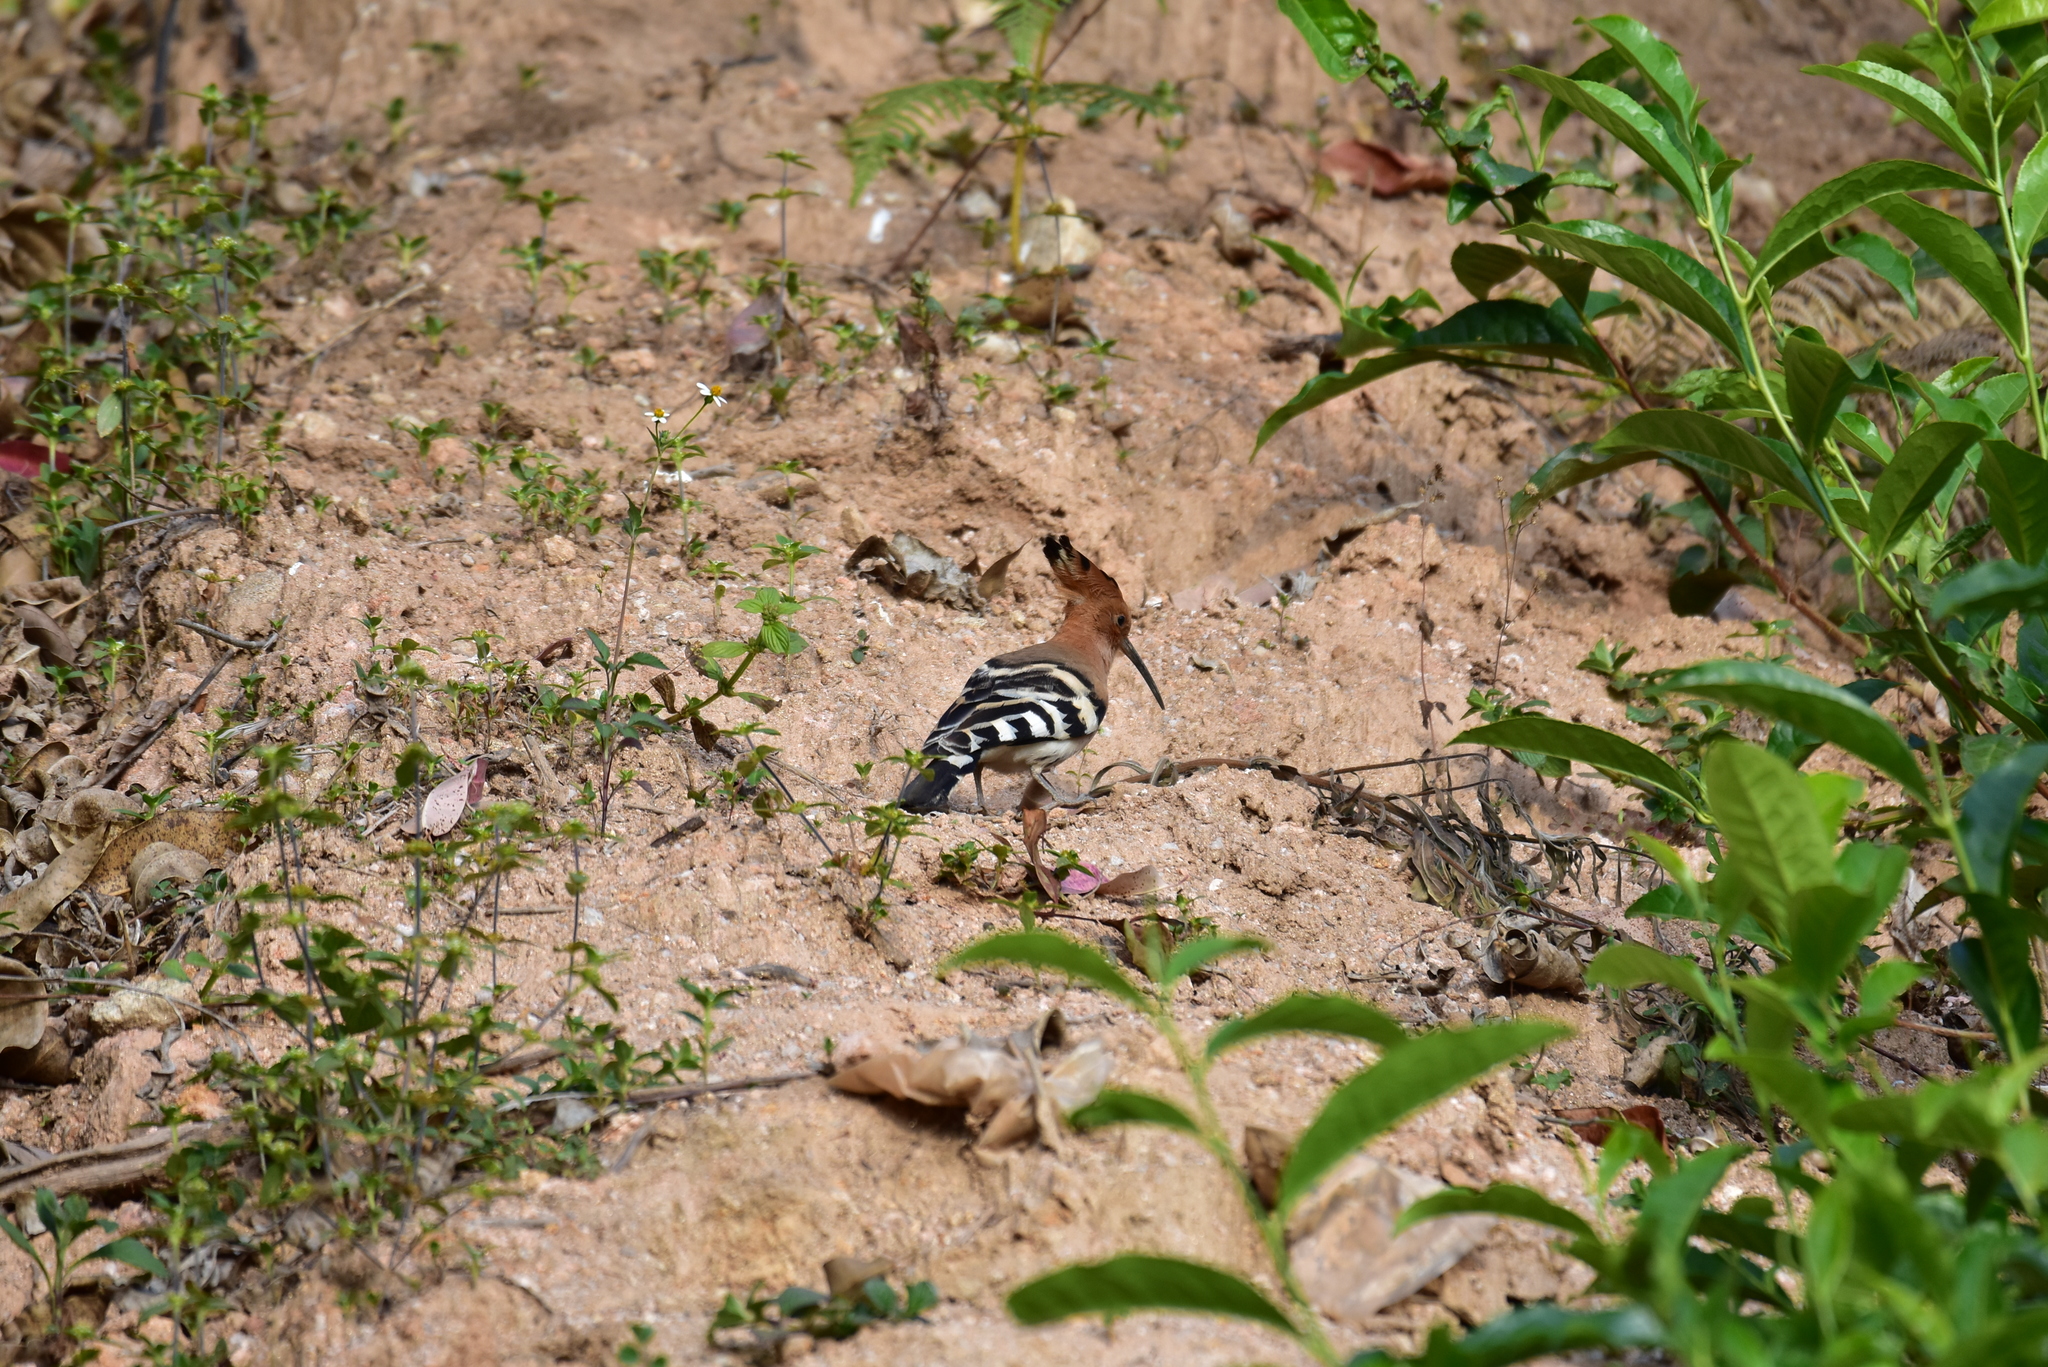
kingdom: Animalia
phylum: Chordata
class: Aves
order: Bucerotiformes
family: Upupidae
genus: Upupa
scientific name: Upupa epops
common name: Eurasian hoopoe
